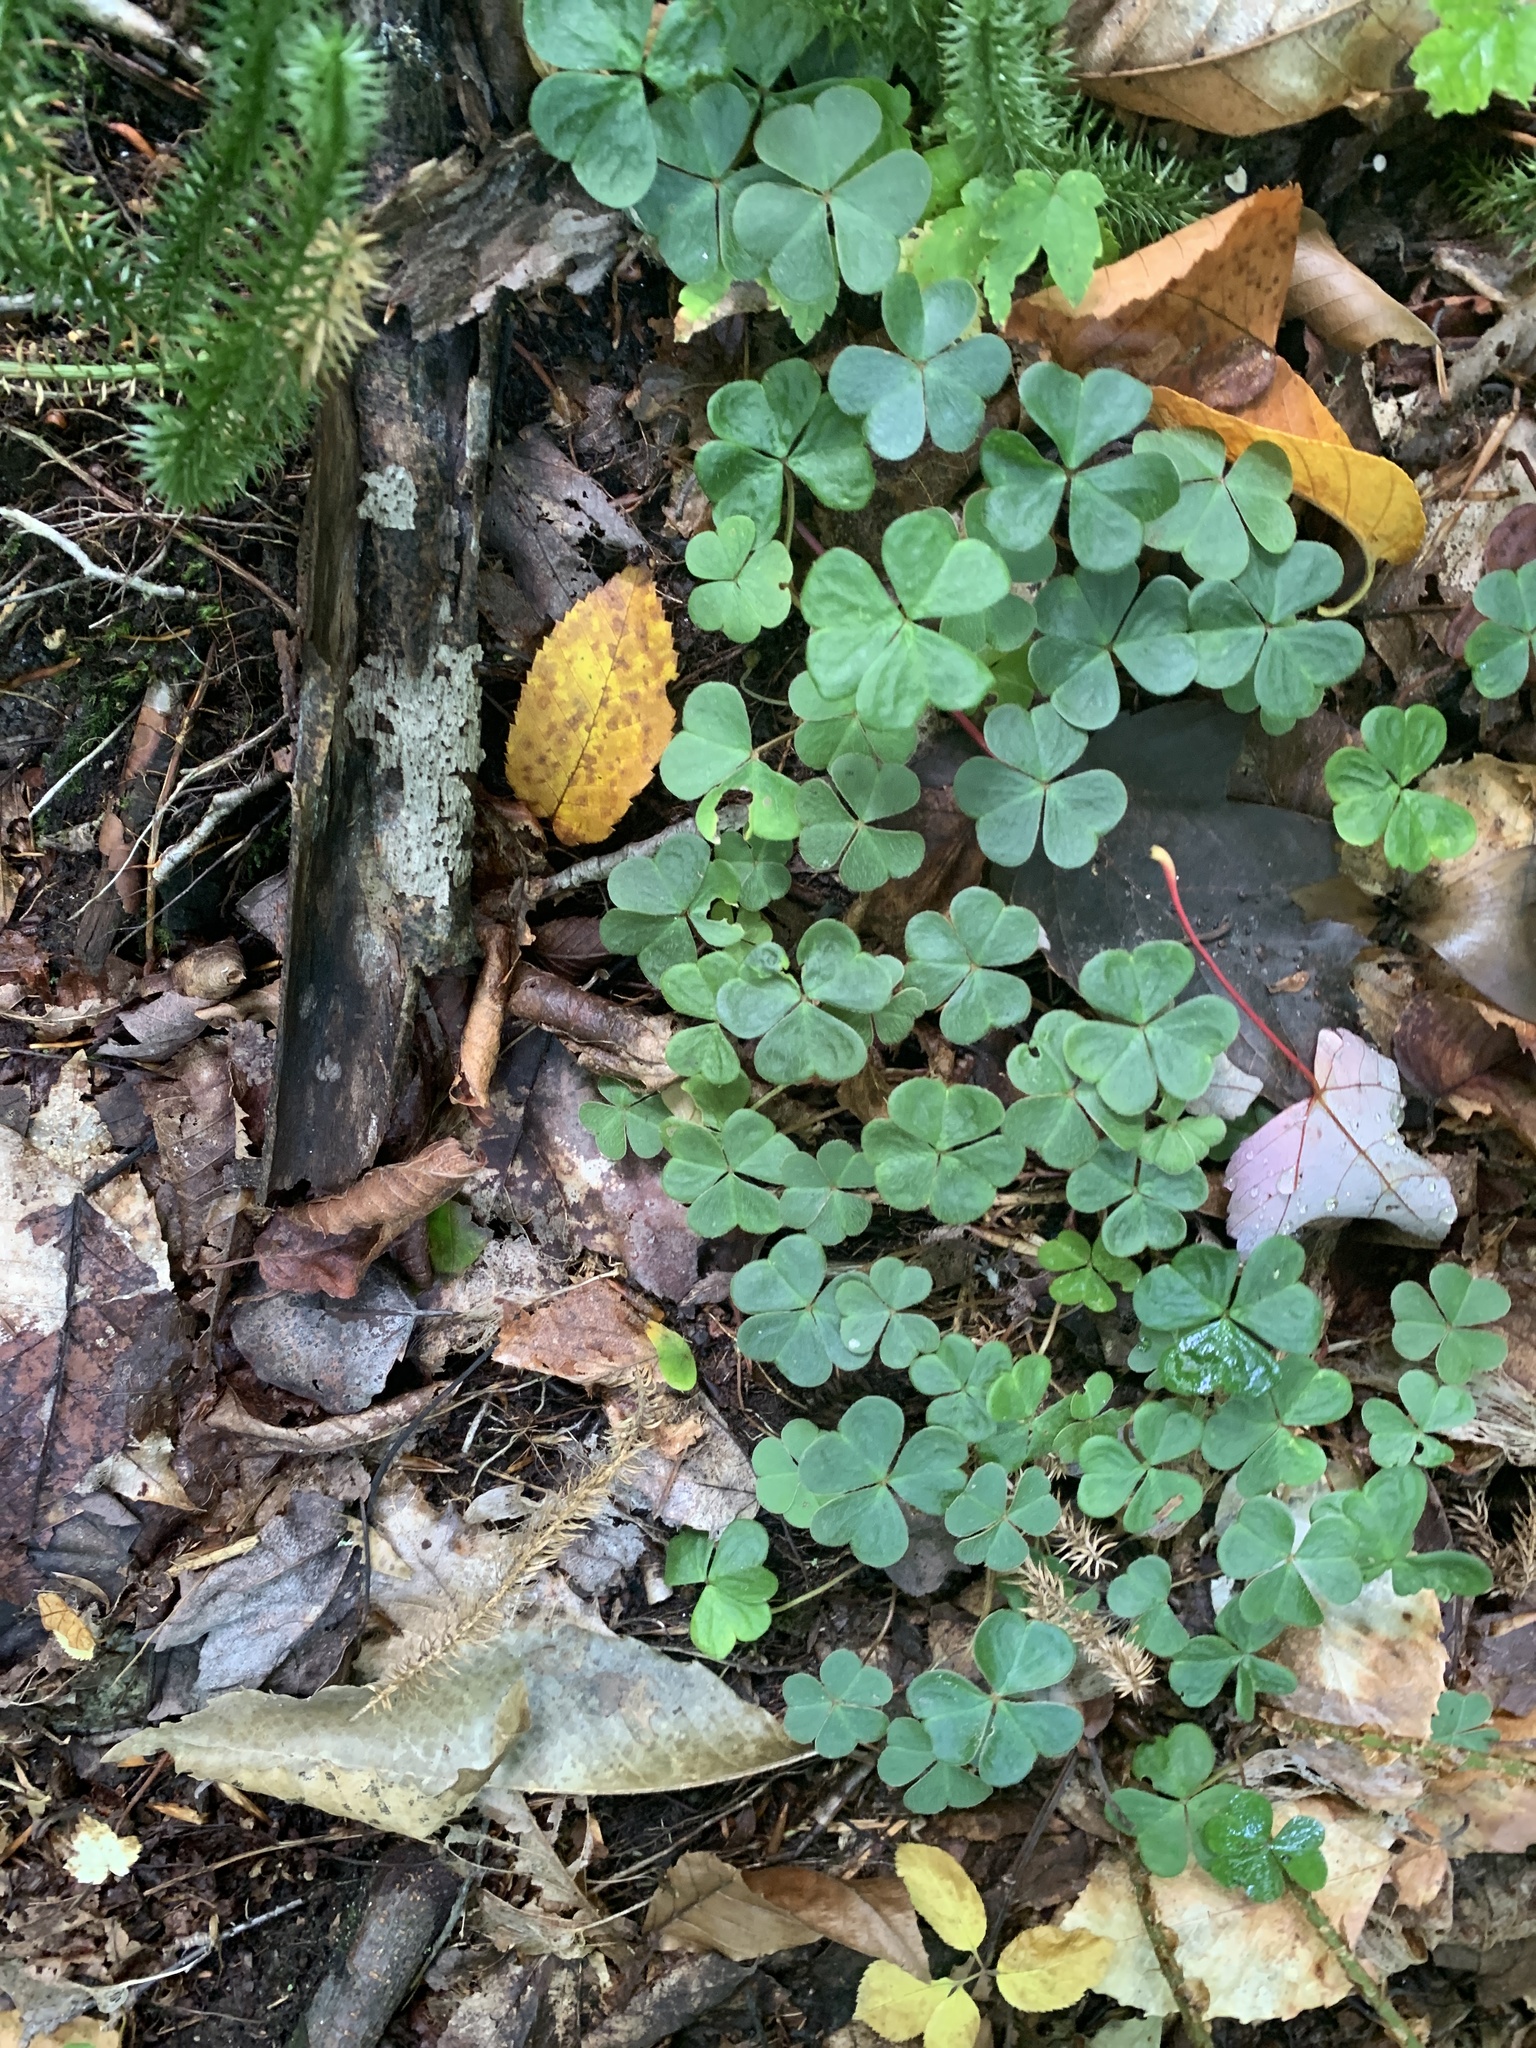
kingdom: Plantae
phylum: Tracheophyta
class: Magnoliopsida
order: Oxalidales
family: Oxalidaceae
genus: Oxalis
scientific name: Oxalis montana
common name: American wood-sorrel
